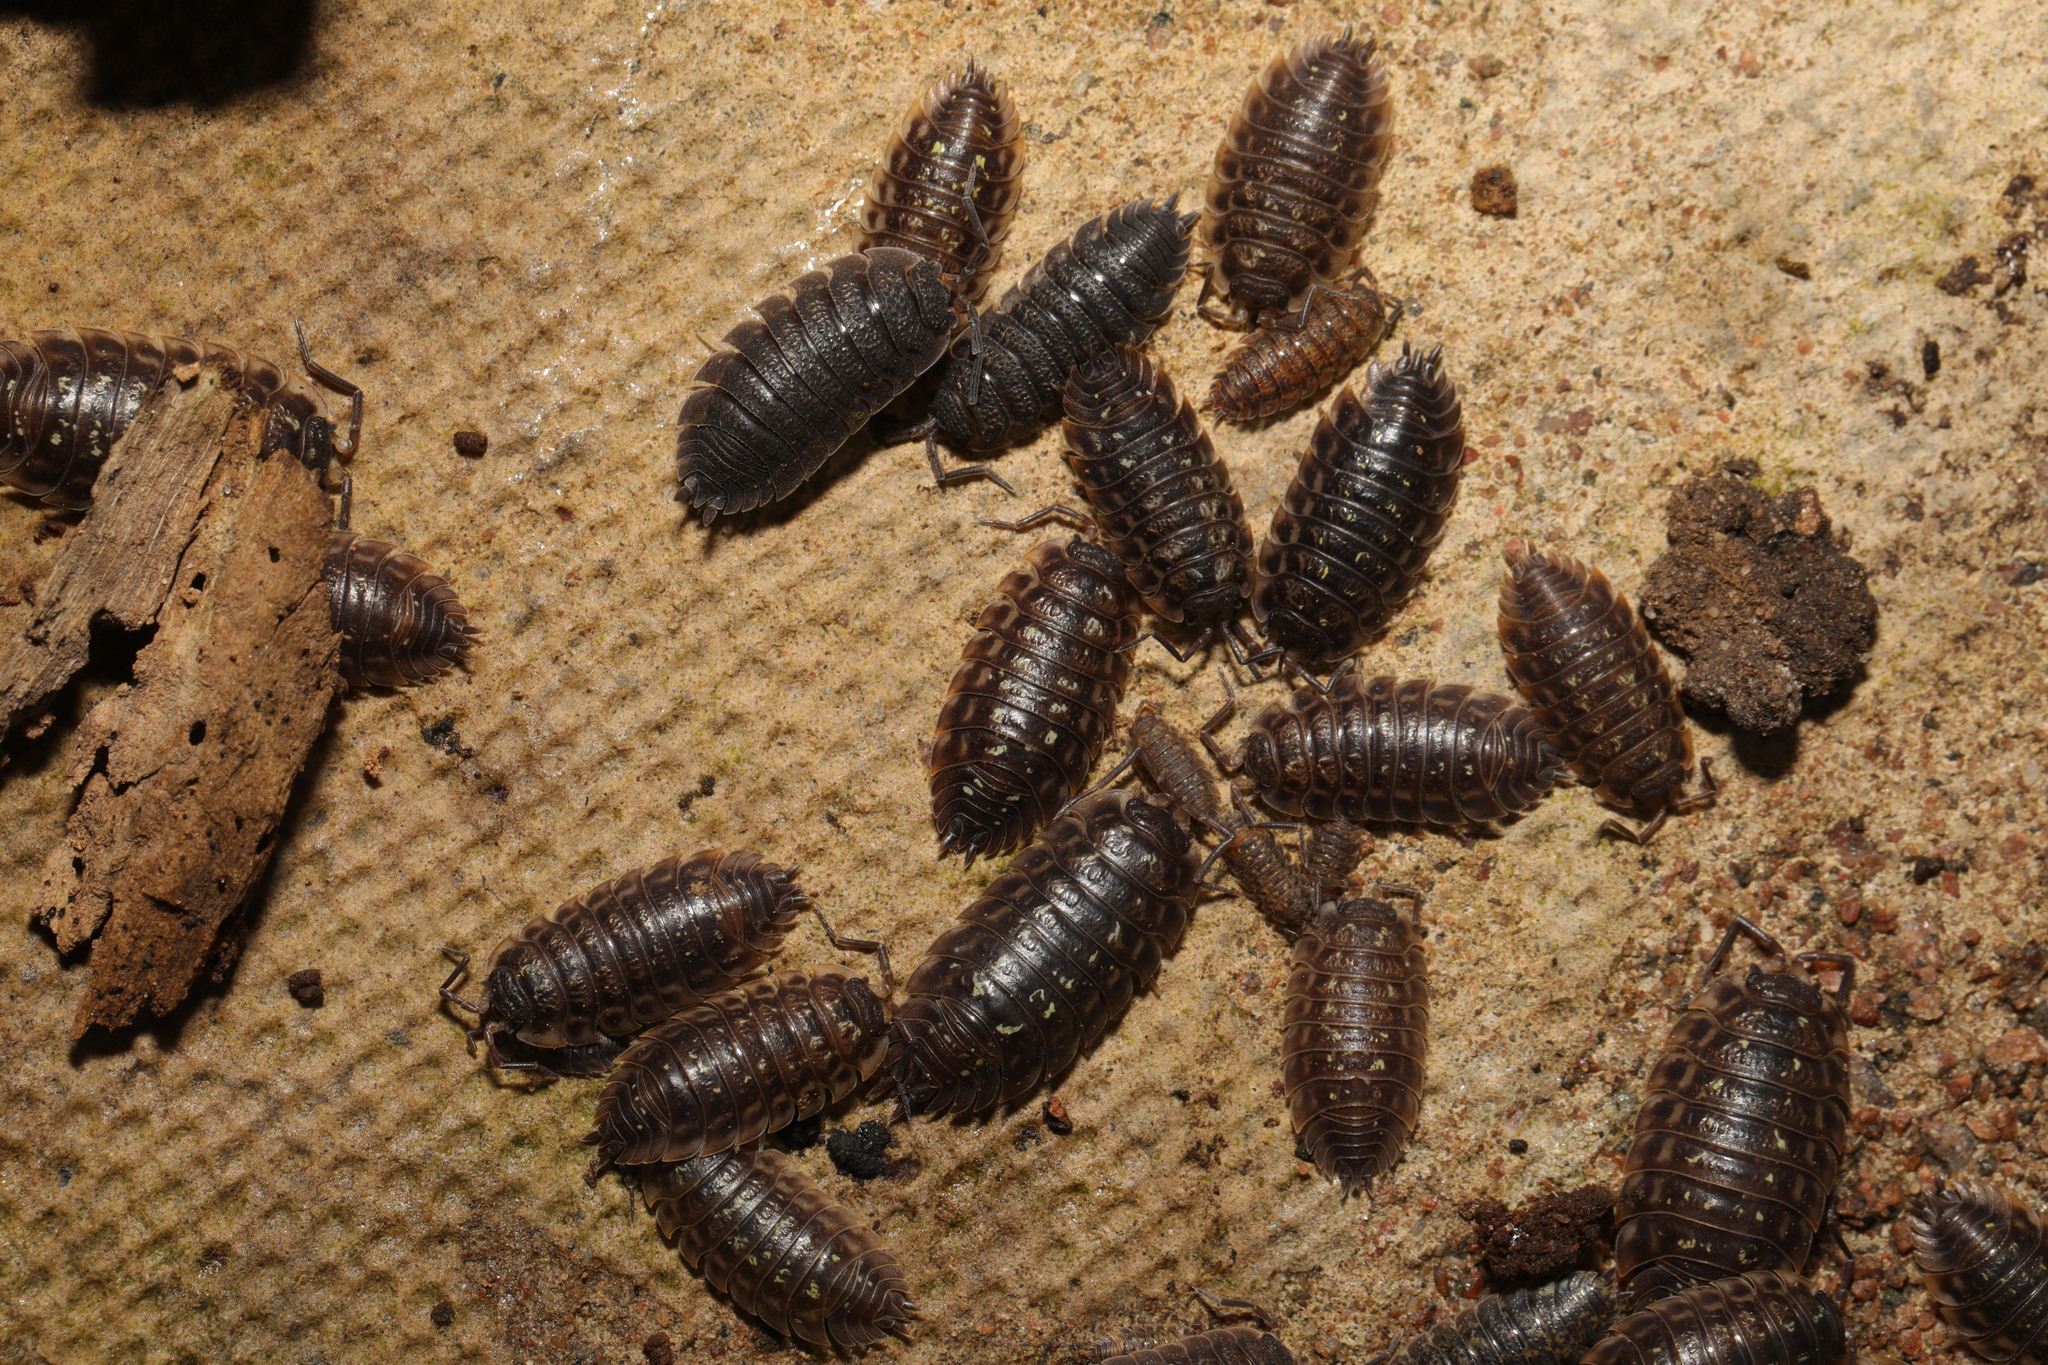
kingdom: Animalia
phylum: Arthropoda
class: Malacostraca
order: Isopoda
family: Oniscidae
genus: Oniscus
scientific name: Oniscus asellus
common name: Common shiny woodlouse
